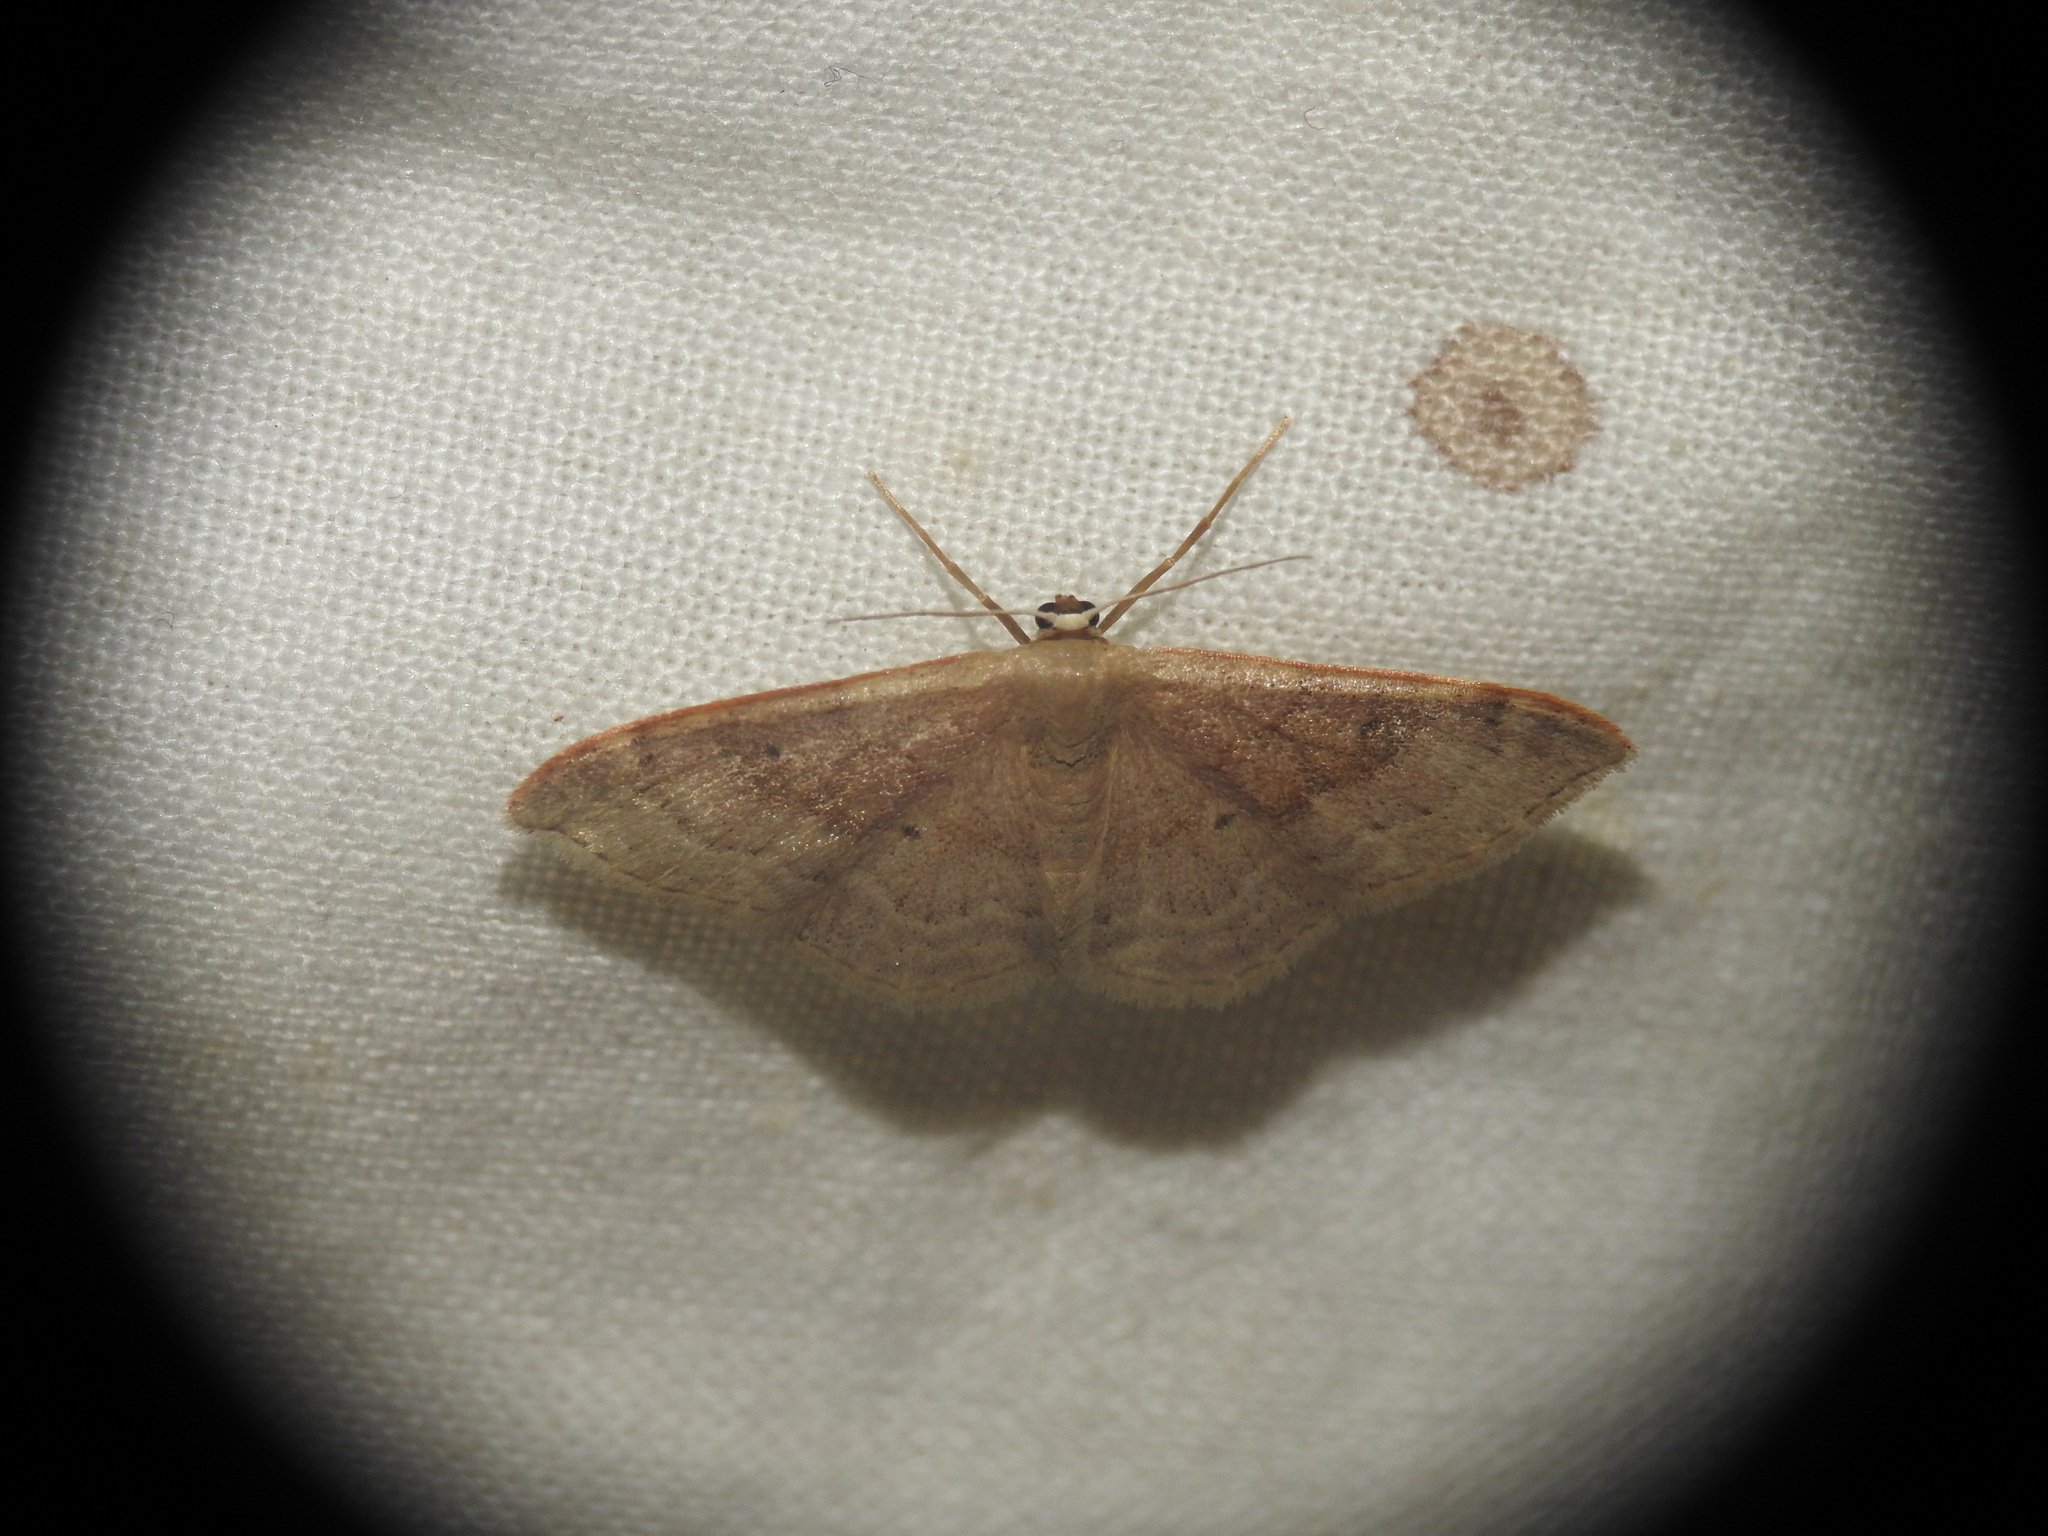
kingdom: Animalia
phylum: Arthropoda
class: Insecta
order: Lepidoptera
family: Geometridae
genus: Idaea
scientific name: Idaea degeneraria
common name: Portland ribbon wave
